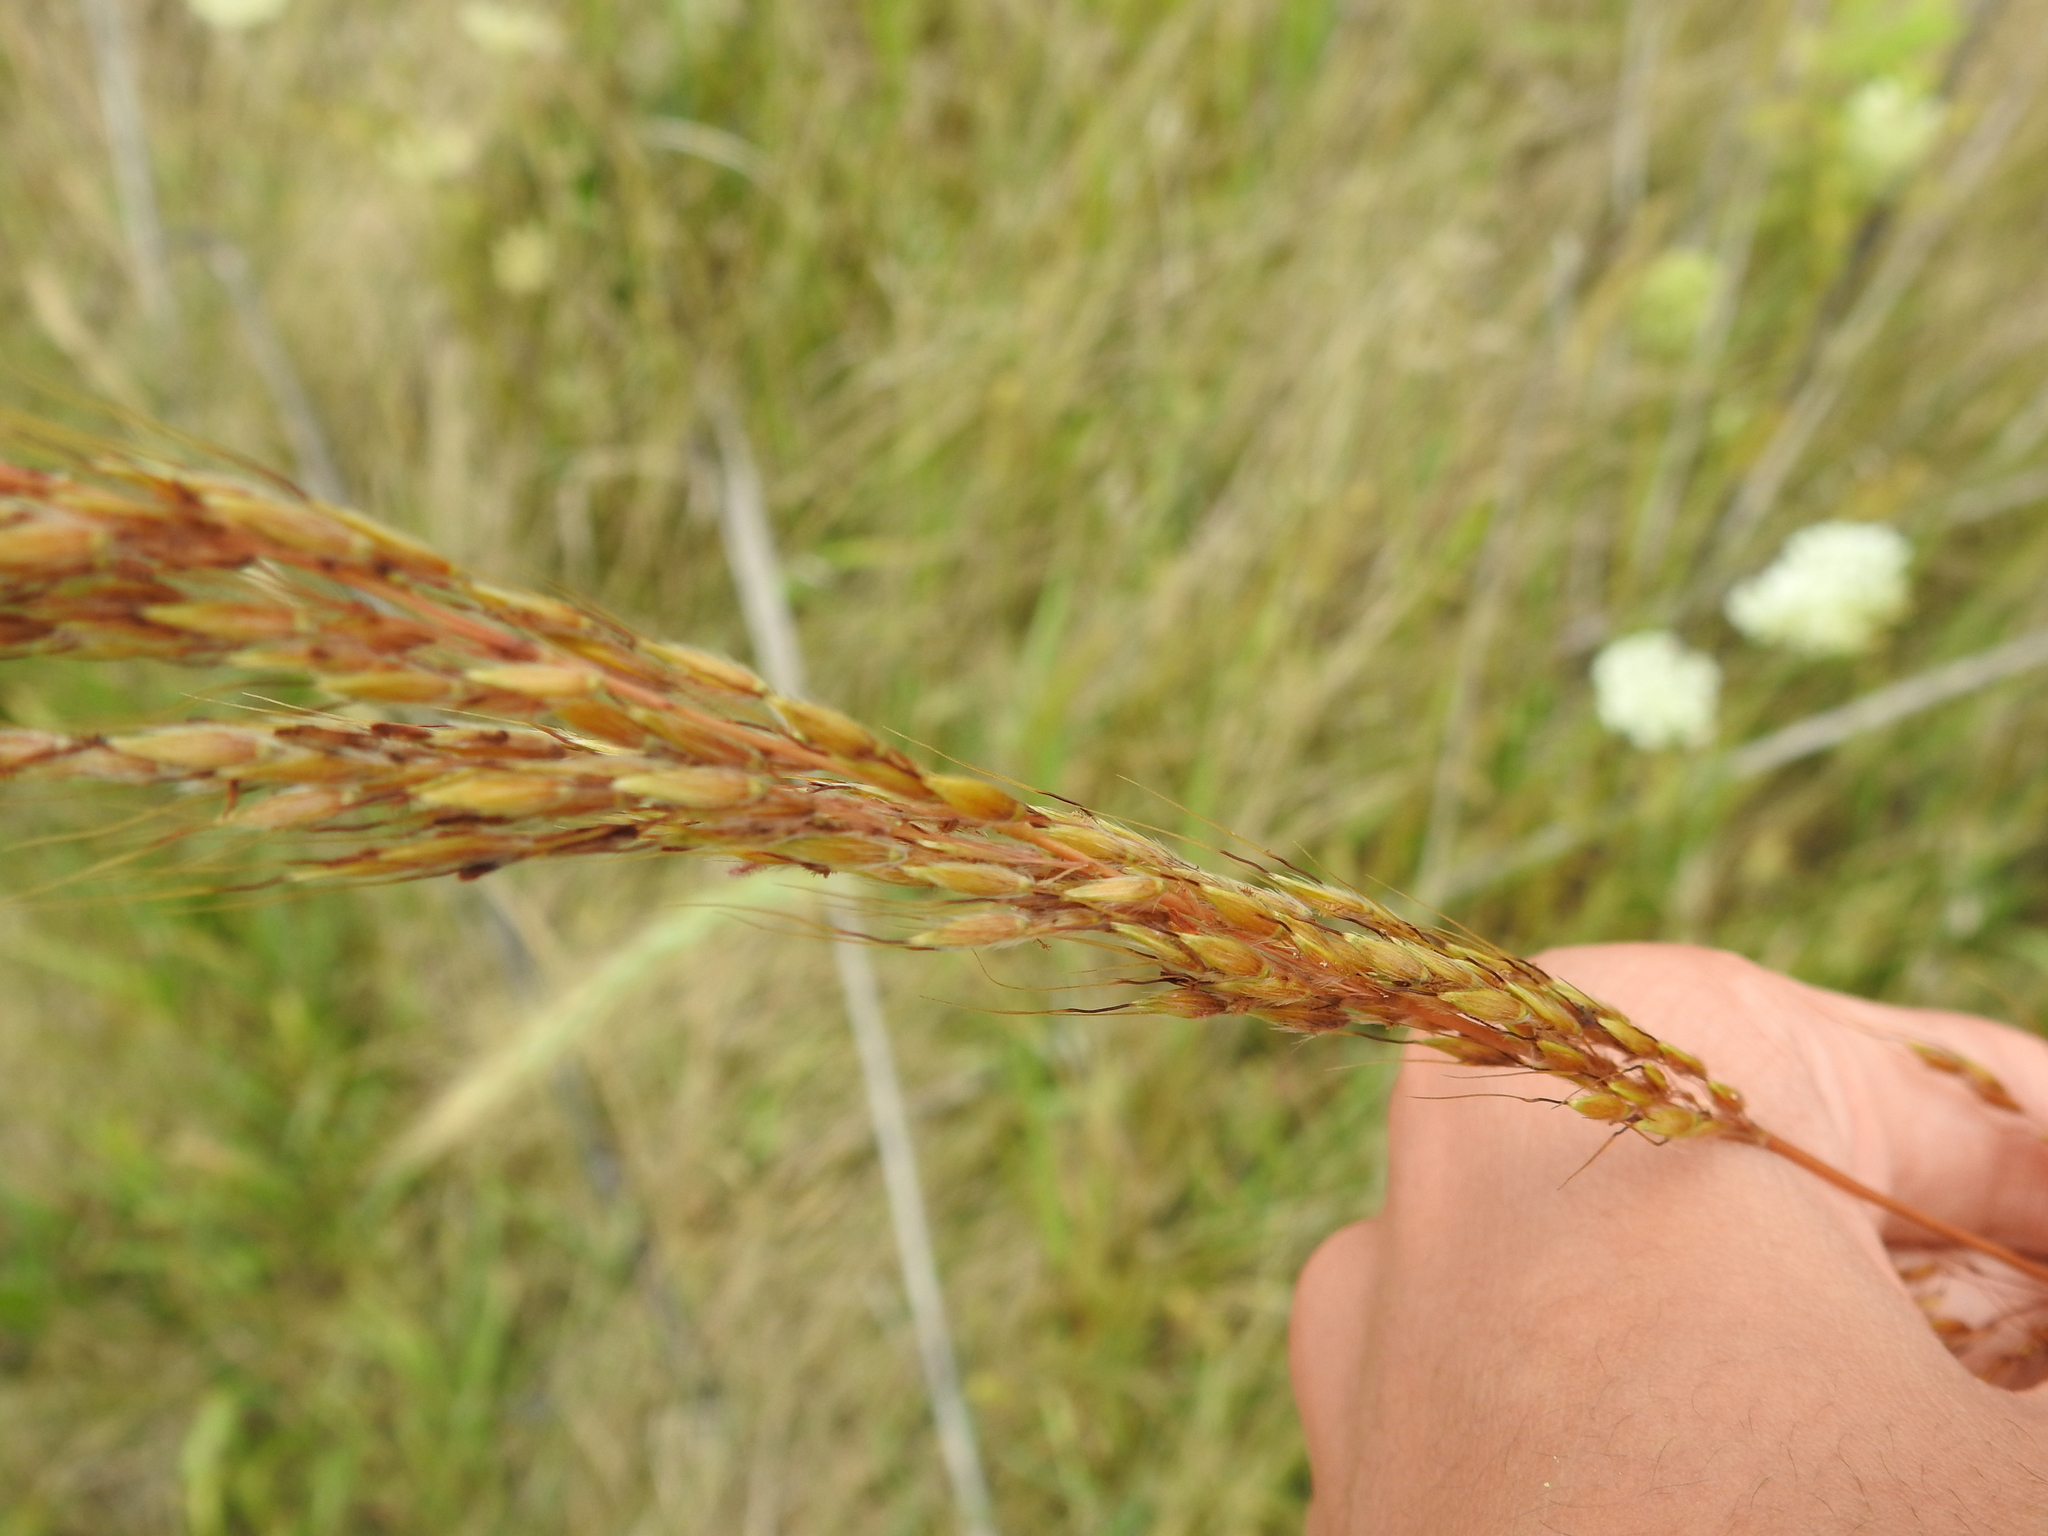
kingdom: Plantae
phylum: Tracheophyta
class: Liliopsida
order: Poales
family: Poaceae
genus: Sorghastrum
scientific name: Sorghastrum nutans
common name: Indian grass
